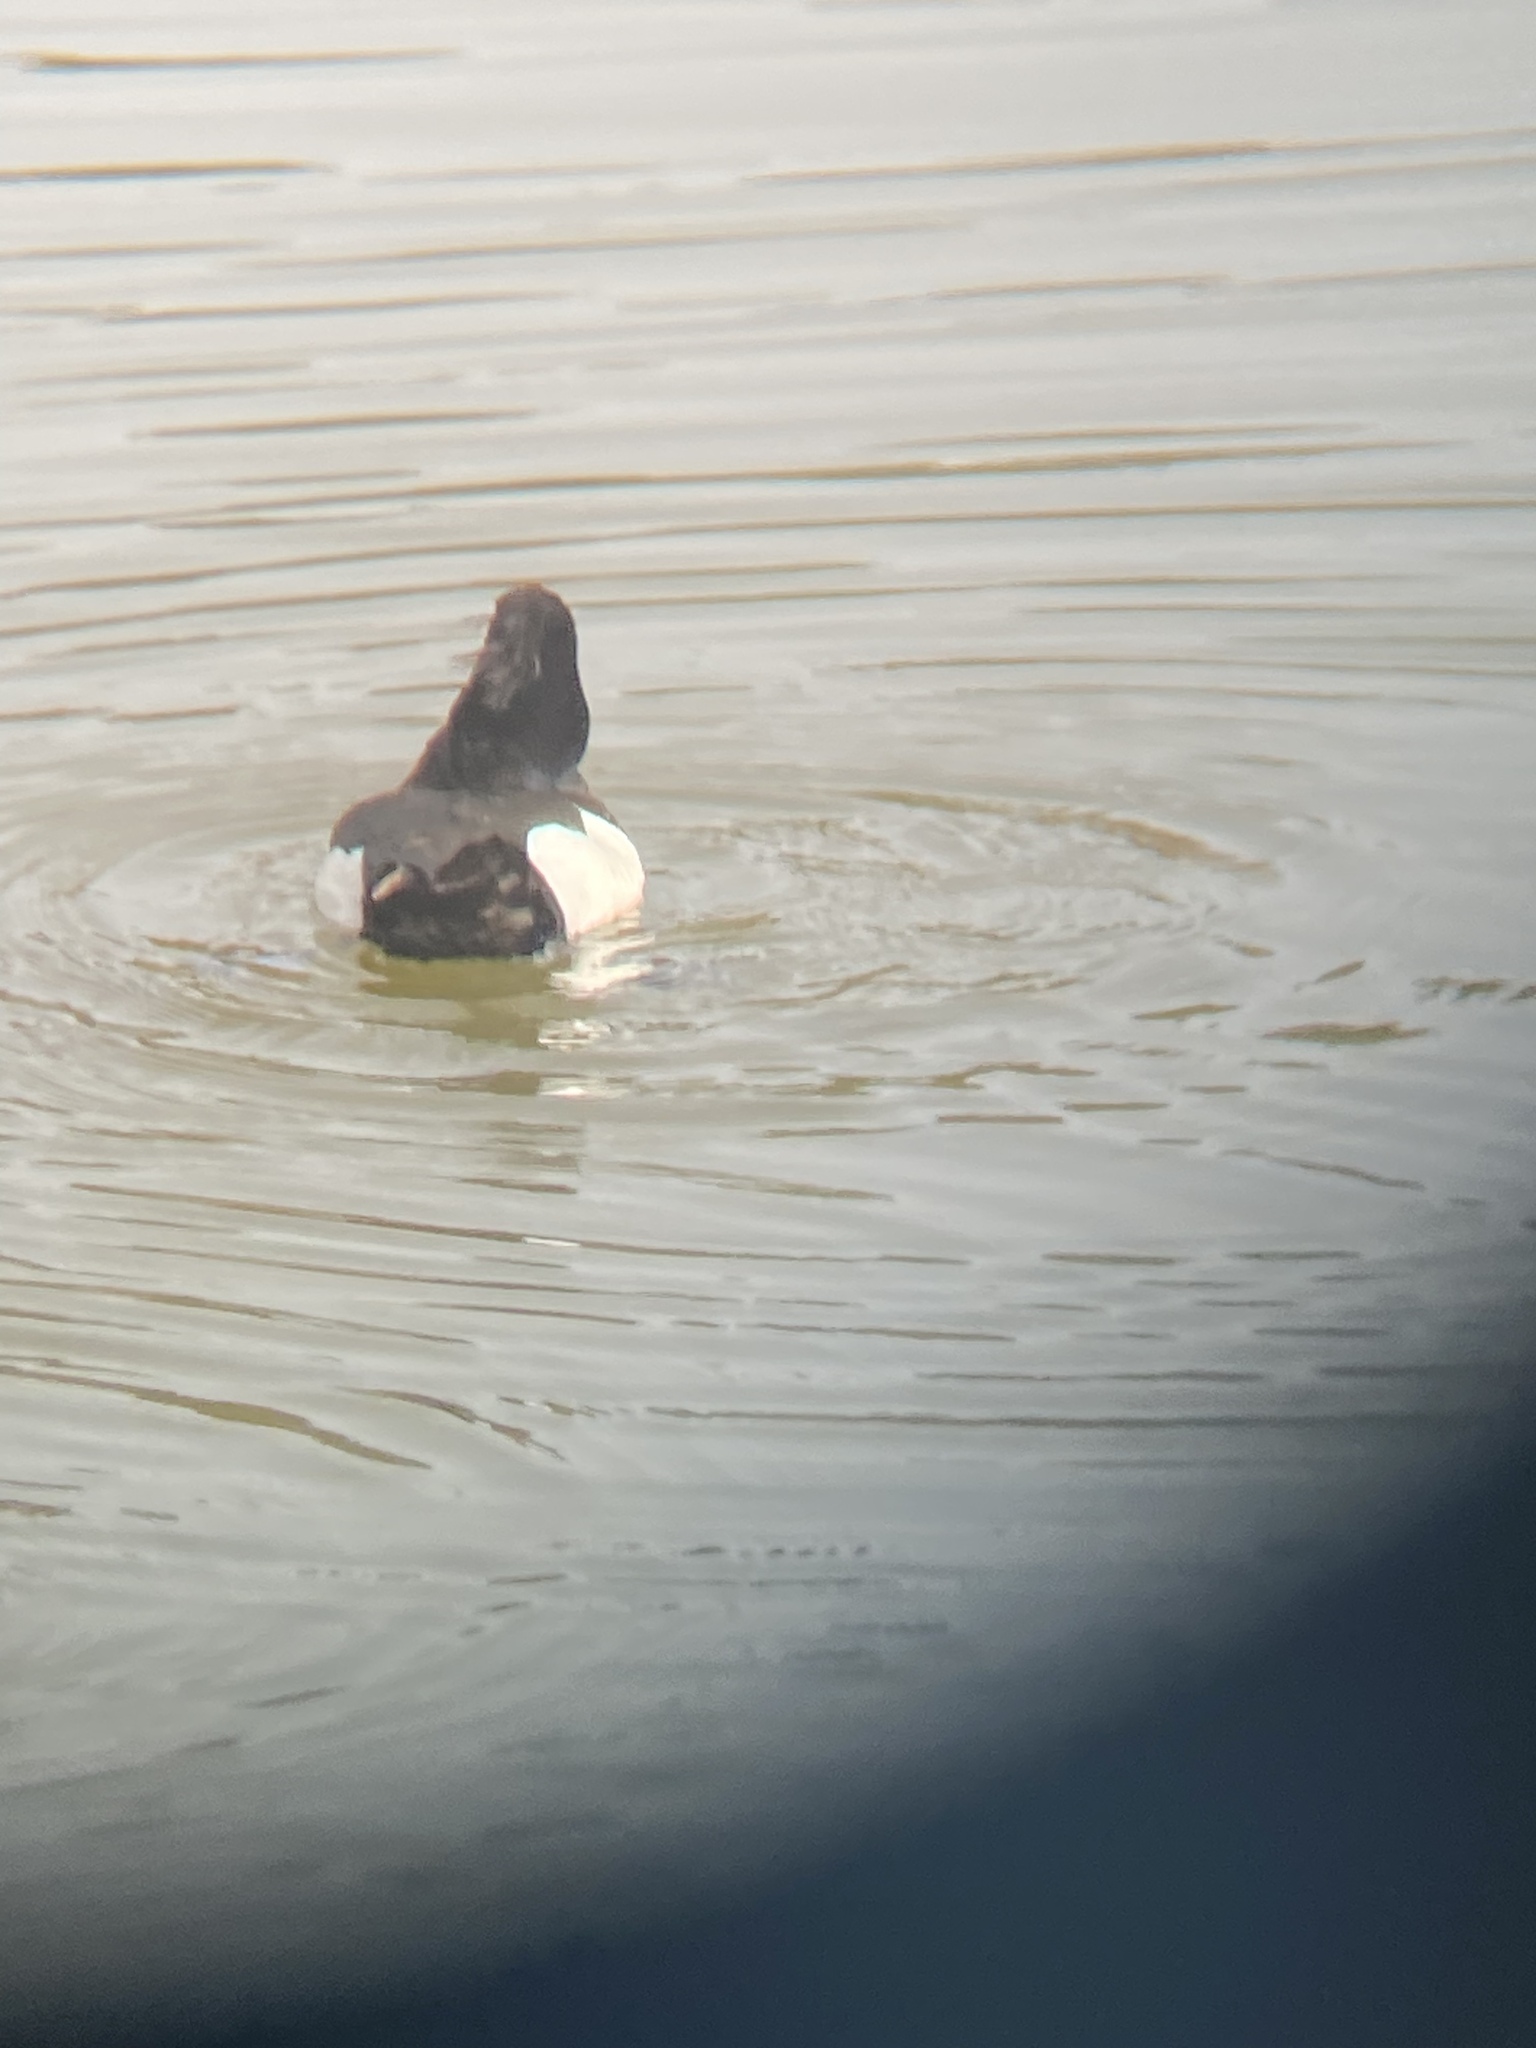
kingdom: Animalia
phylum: Chordata
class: Aves
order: Anseriformes
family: Anatidae
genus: Aythya
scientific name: Aythya fuligula
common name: Tufted duck
